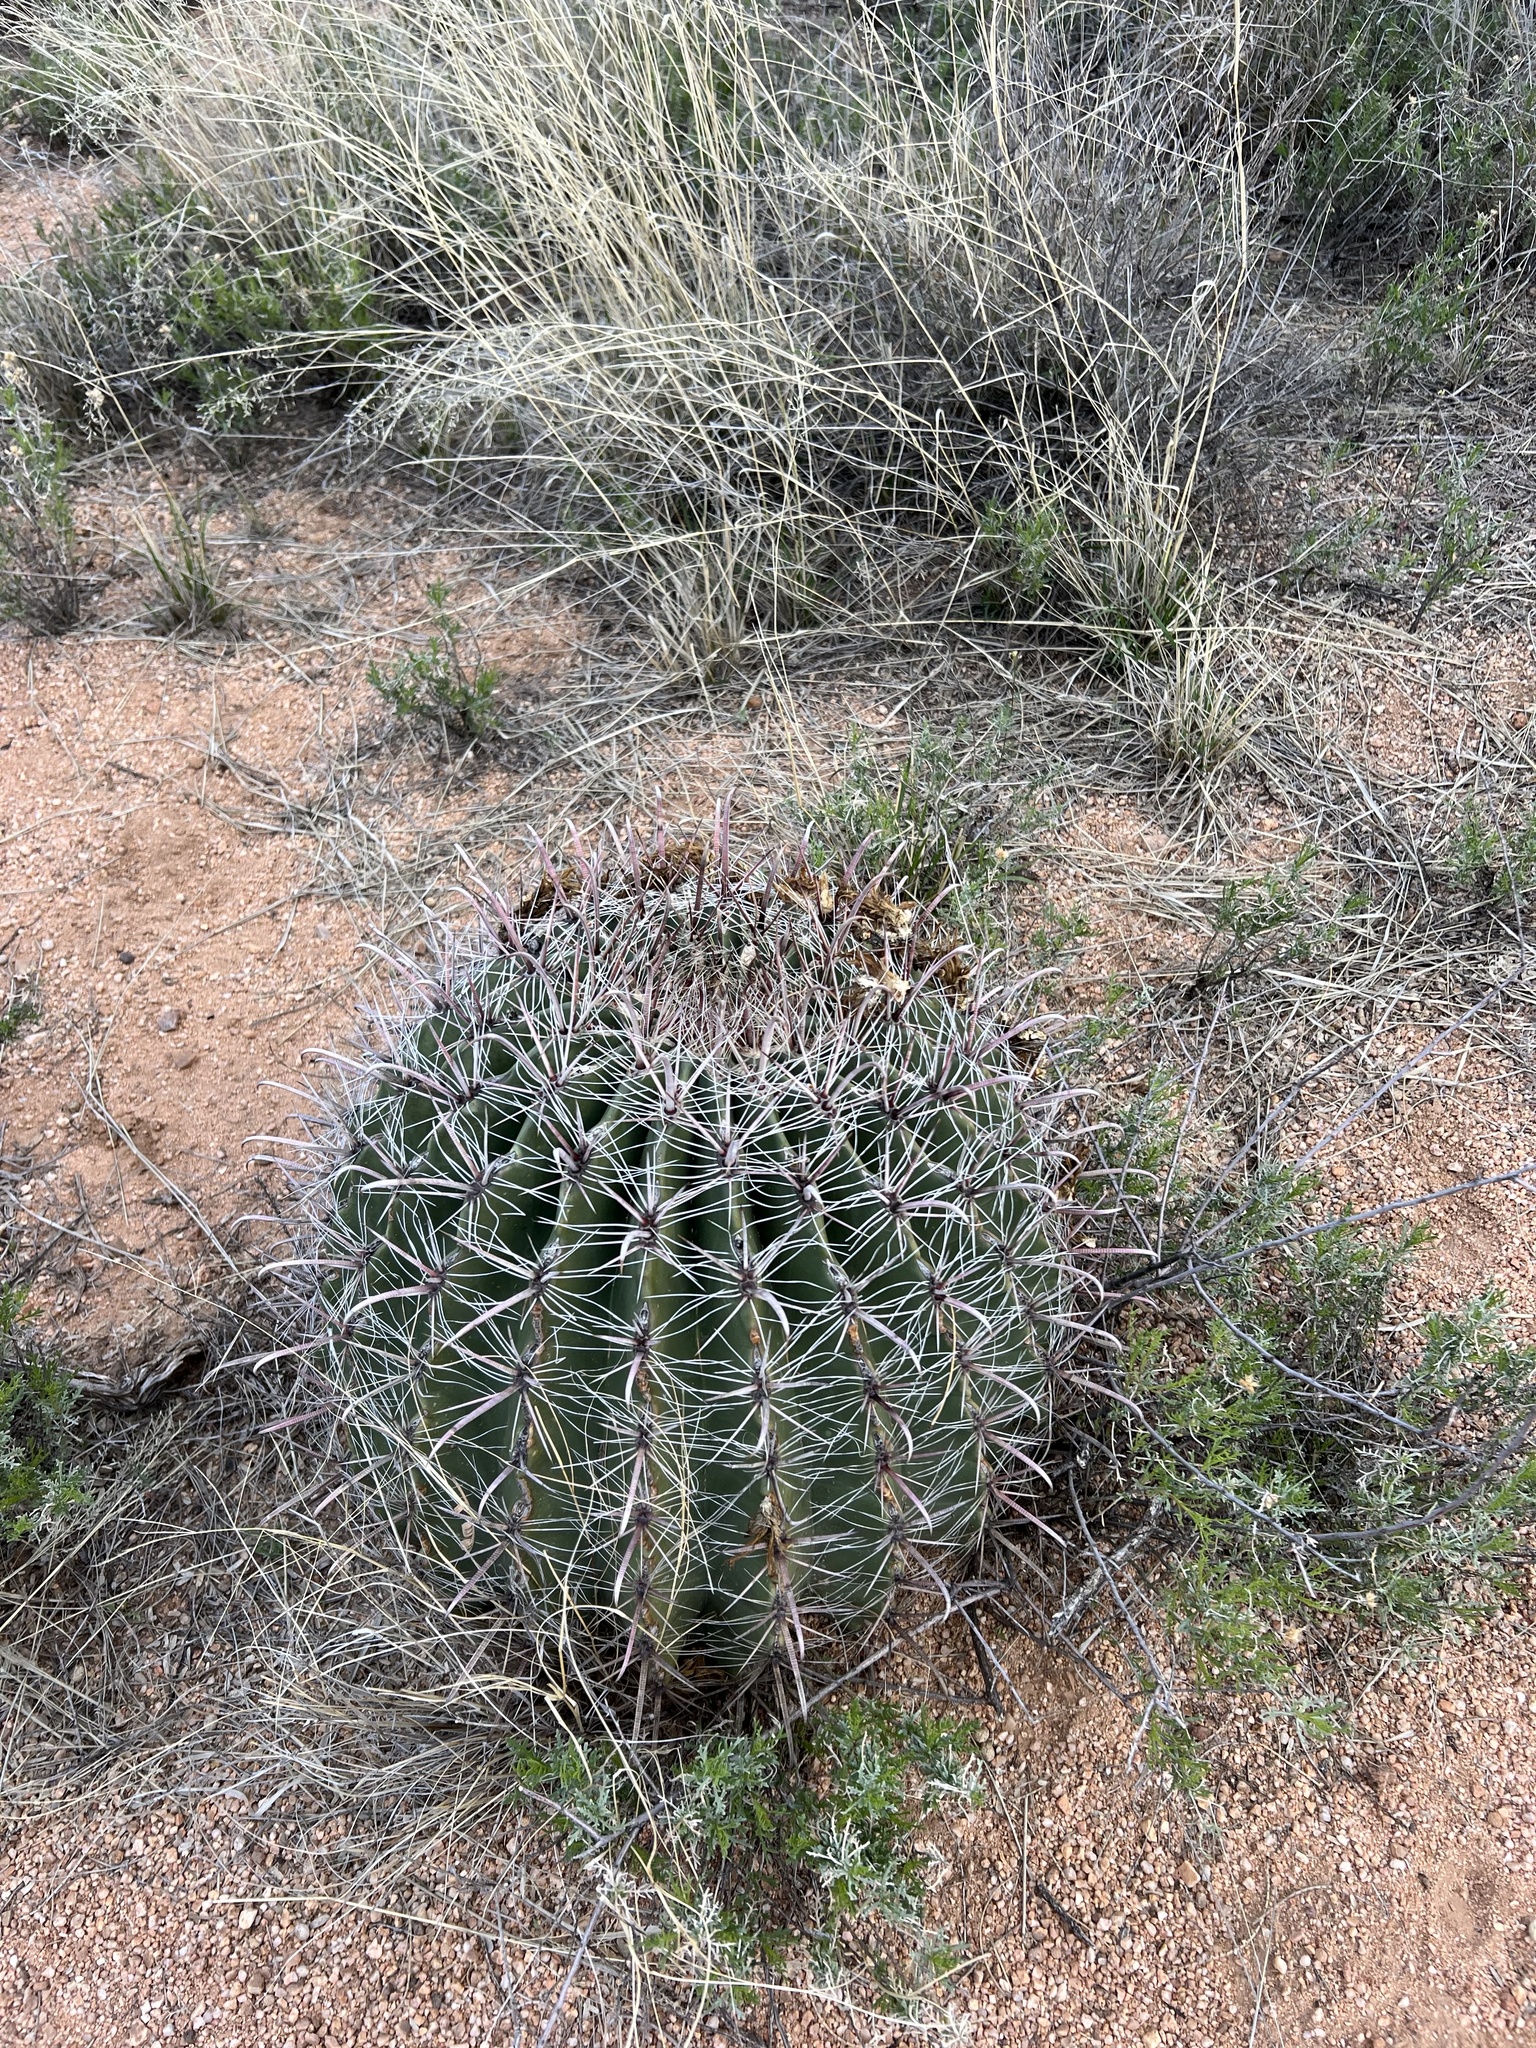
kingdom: Plantae
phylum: Tracheophyta
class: Magnoliopsida
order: Caryophyllales
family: Cactaceae
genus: Ferocactus
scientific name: Ferocactus wislizeni
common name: Candy barrel cactus
